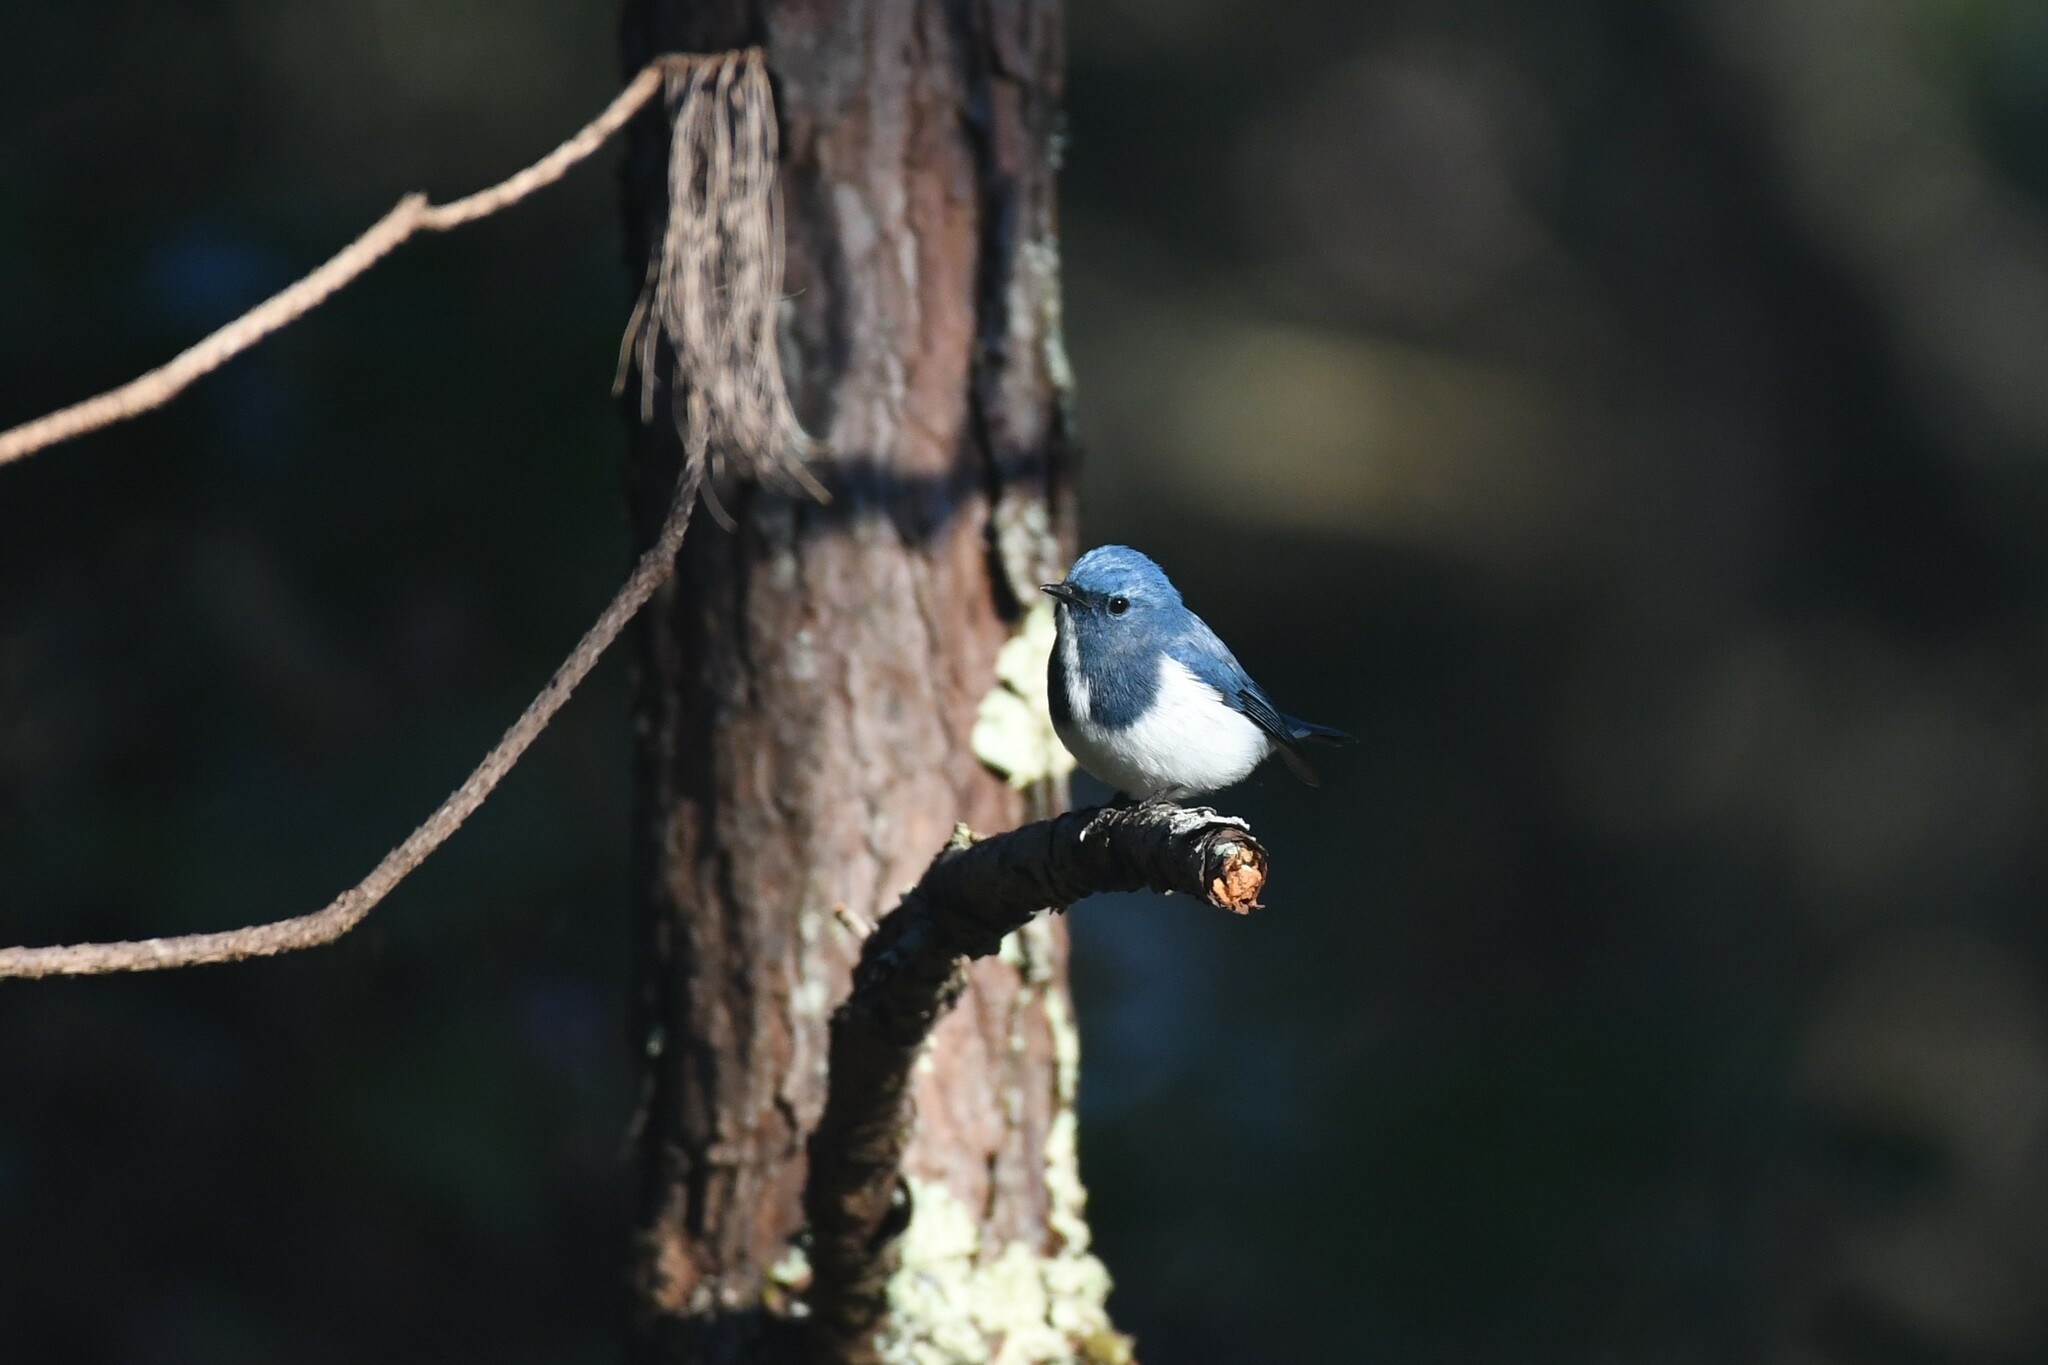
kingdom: Animalia
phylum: Chordata
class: Aves
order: Passeriformes
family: Muscicapidae
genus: Ficedula
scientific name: Ficedula superciliaris
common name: Ultramarine flycatcher
